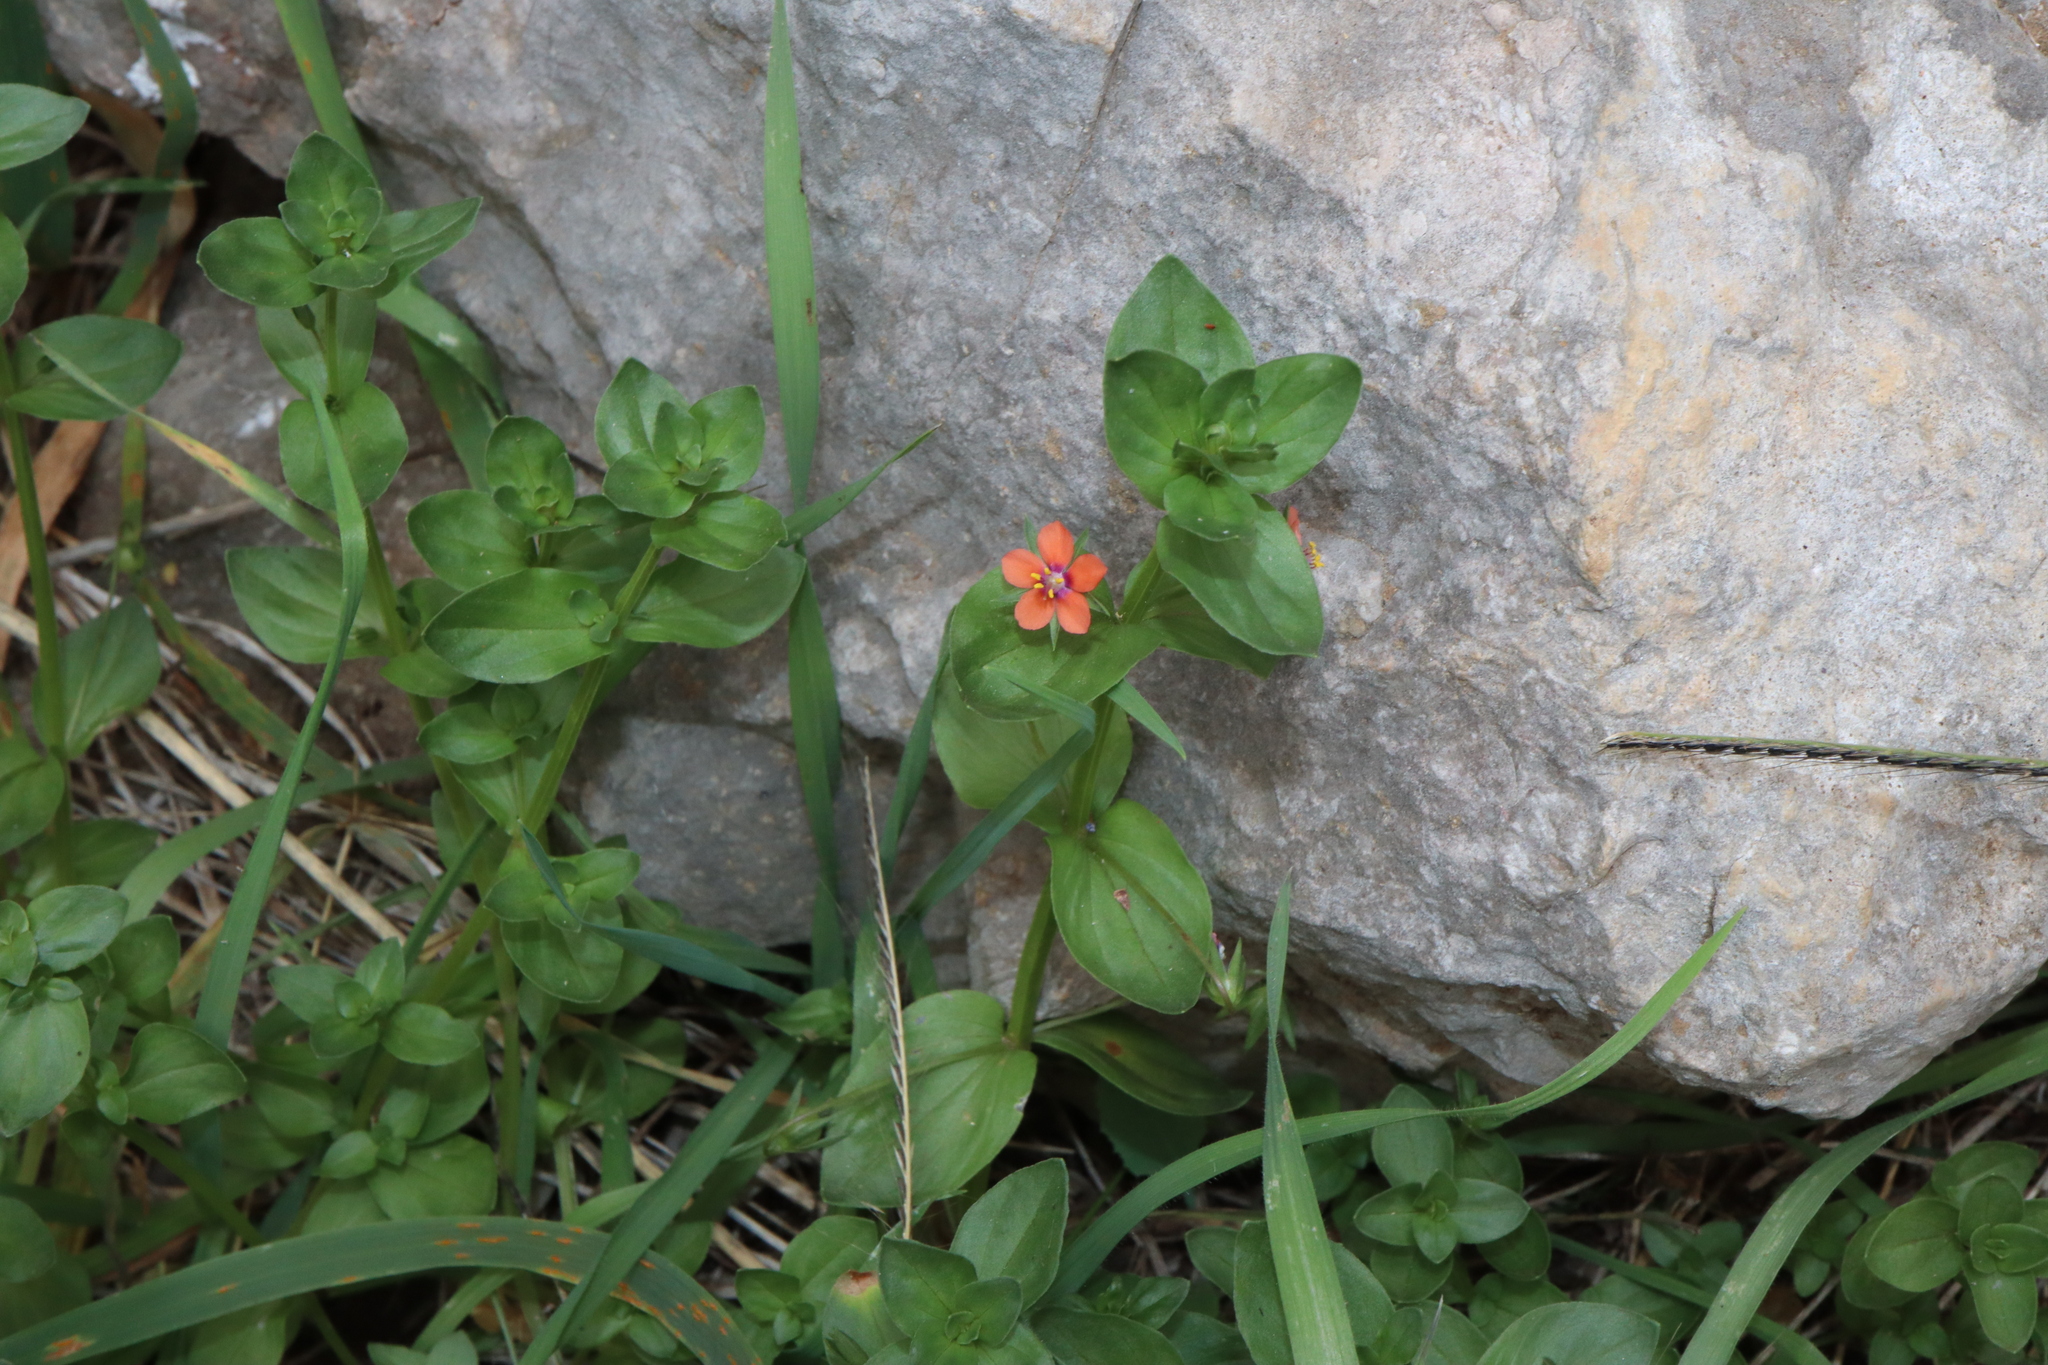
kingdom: Plantae
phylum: Tracheophyta
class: Magnoliopsida
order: Ericales
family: Primulaceae
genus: Lysimachia
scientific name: Lysimachia arvensis
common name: Scarlet pimpernel
